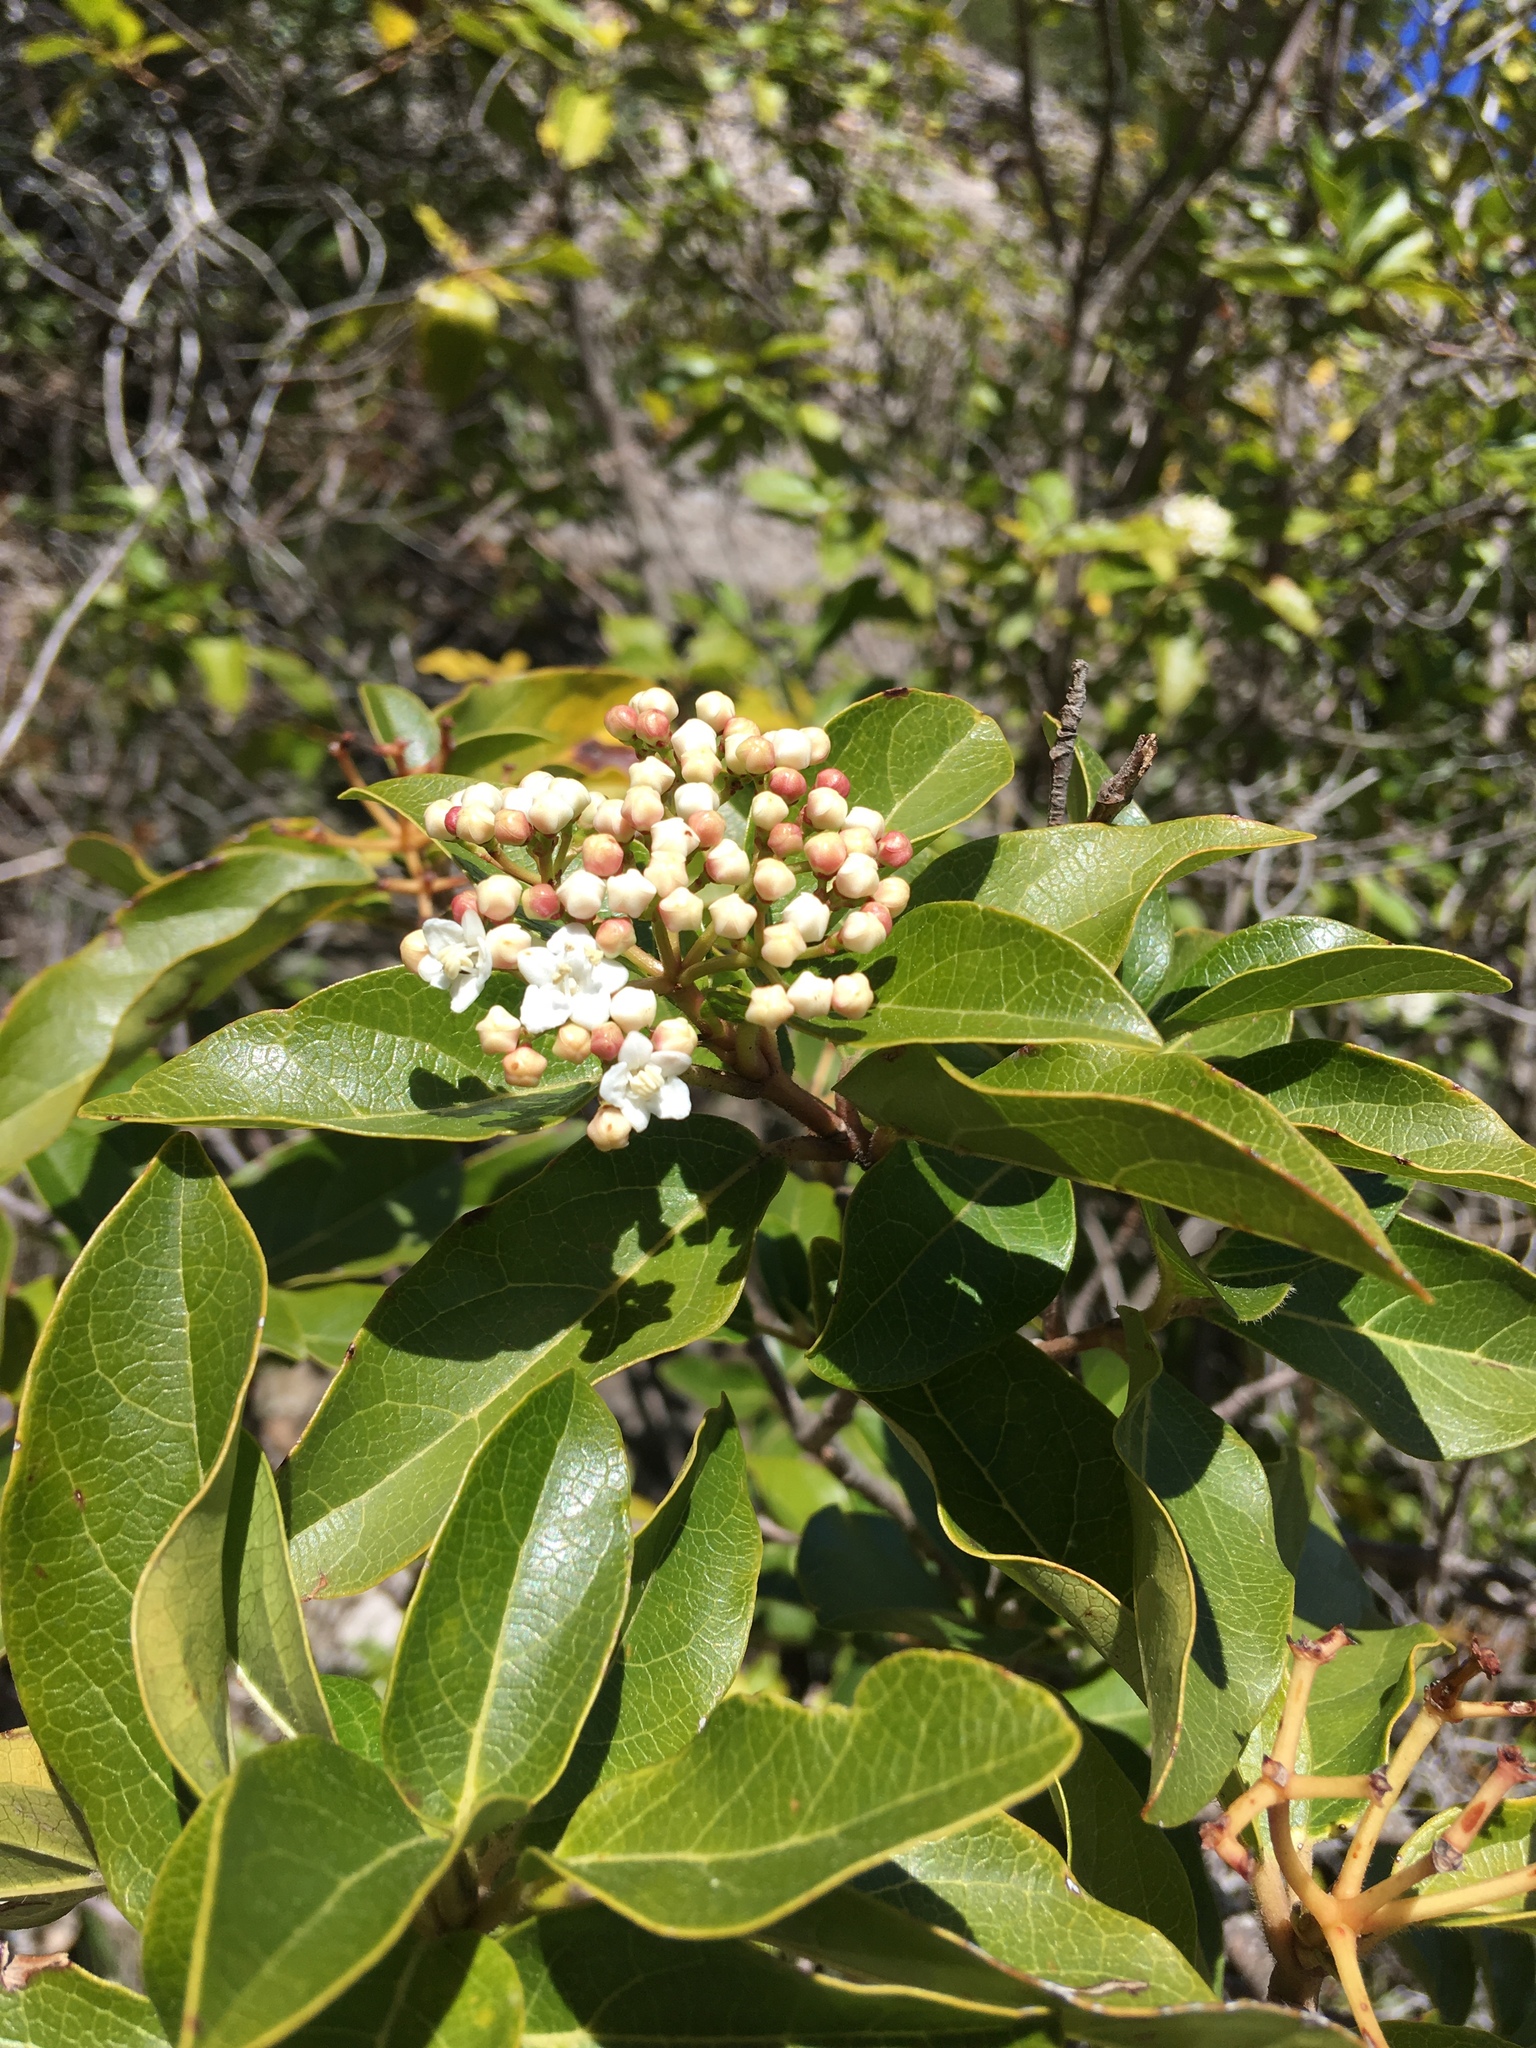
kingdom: Plantae
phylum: Tracheophyta
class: Magnoliopsida
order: Dipsacales
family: Viburnaceae
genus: Viburnum
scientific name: Viburnum tinus
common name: Laurustinus
